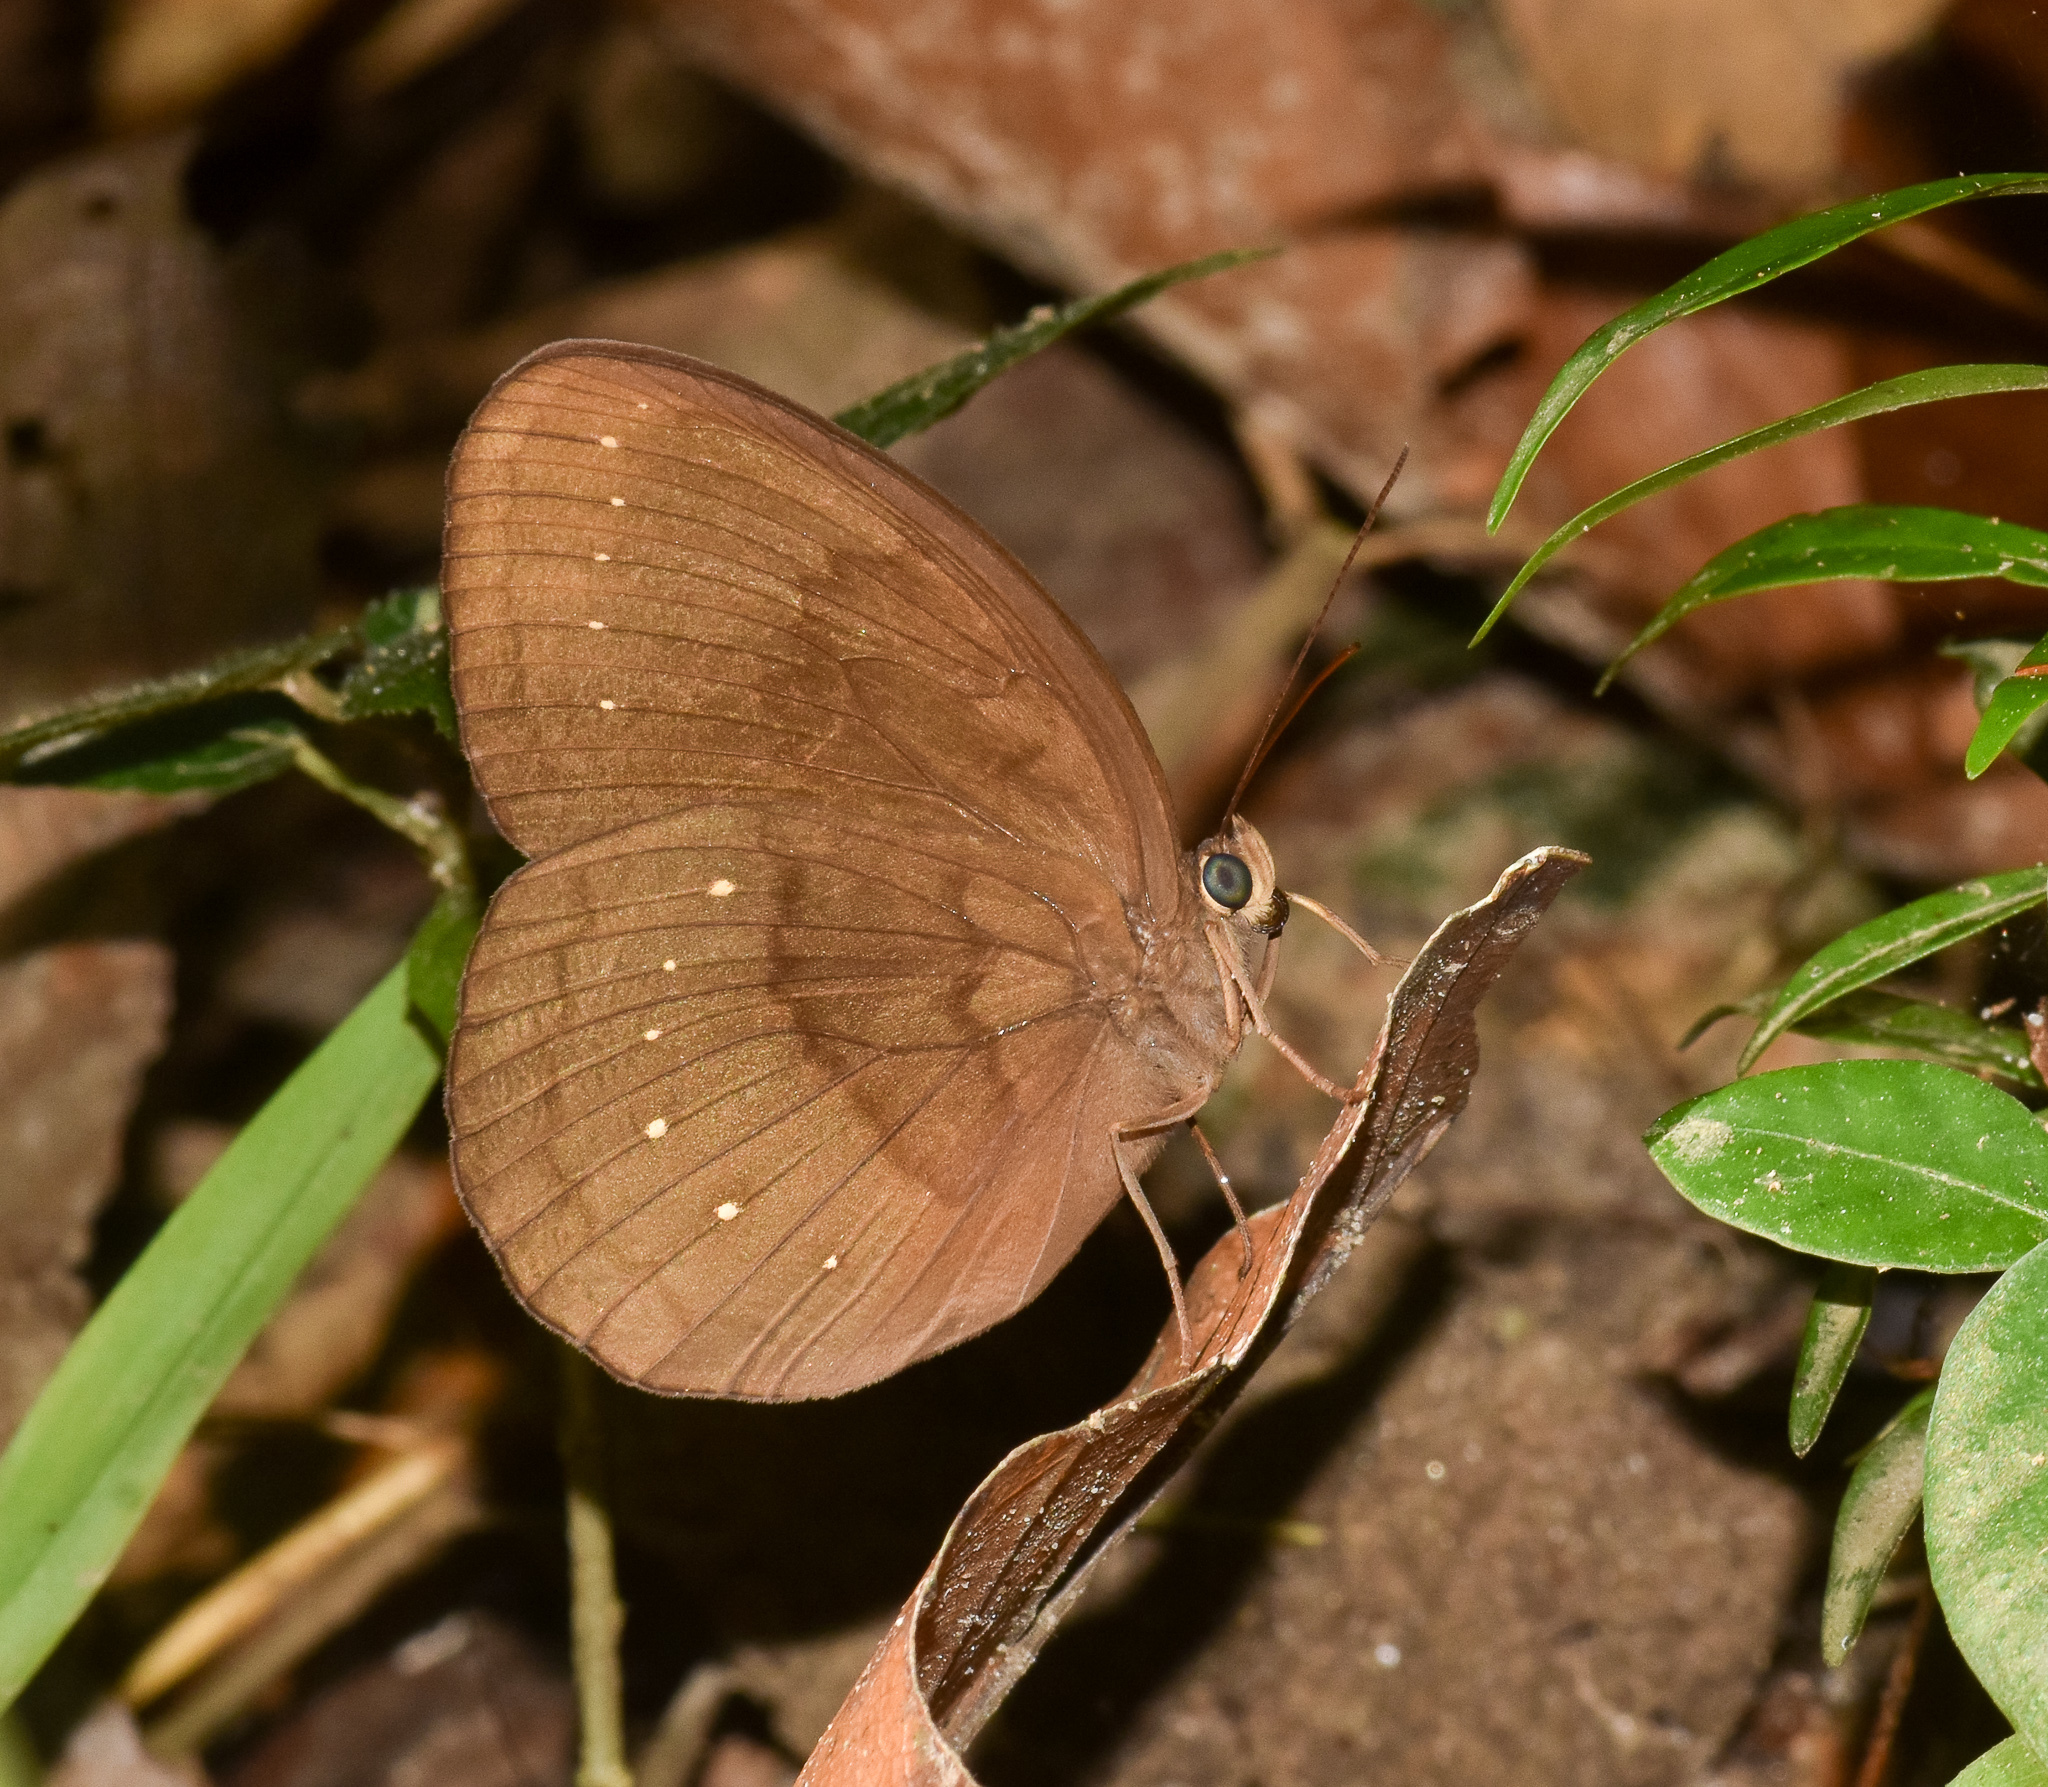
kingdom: Animalia
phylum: Arthropoda
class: Insecta
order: Lepidoptera
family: Nymphalidae
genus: Faunis
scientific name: Faunis canens
